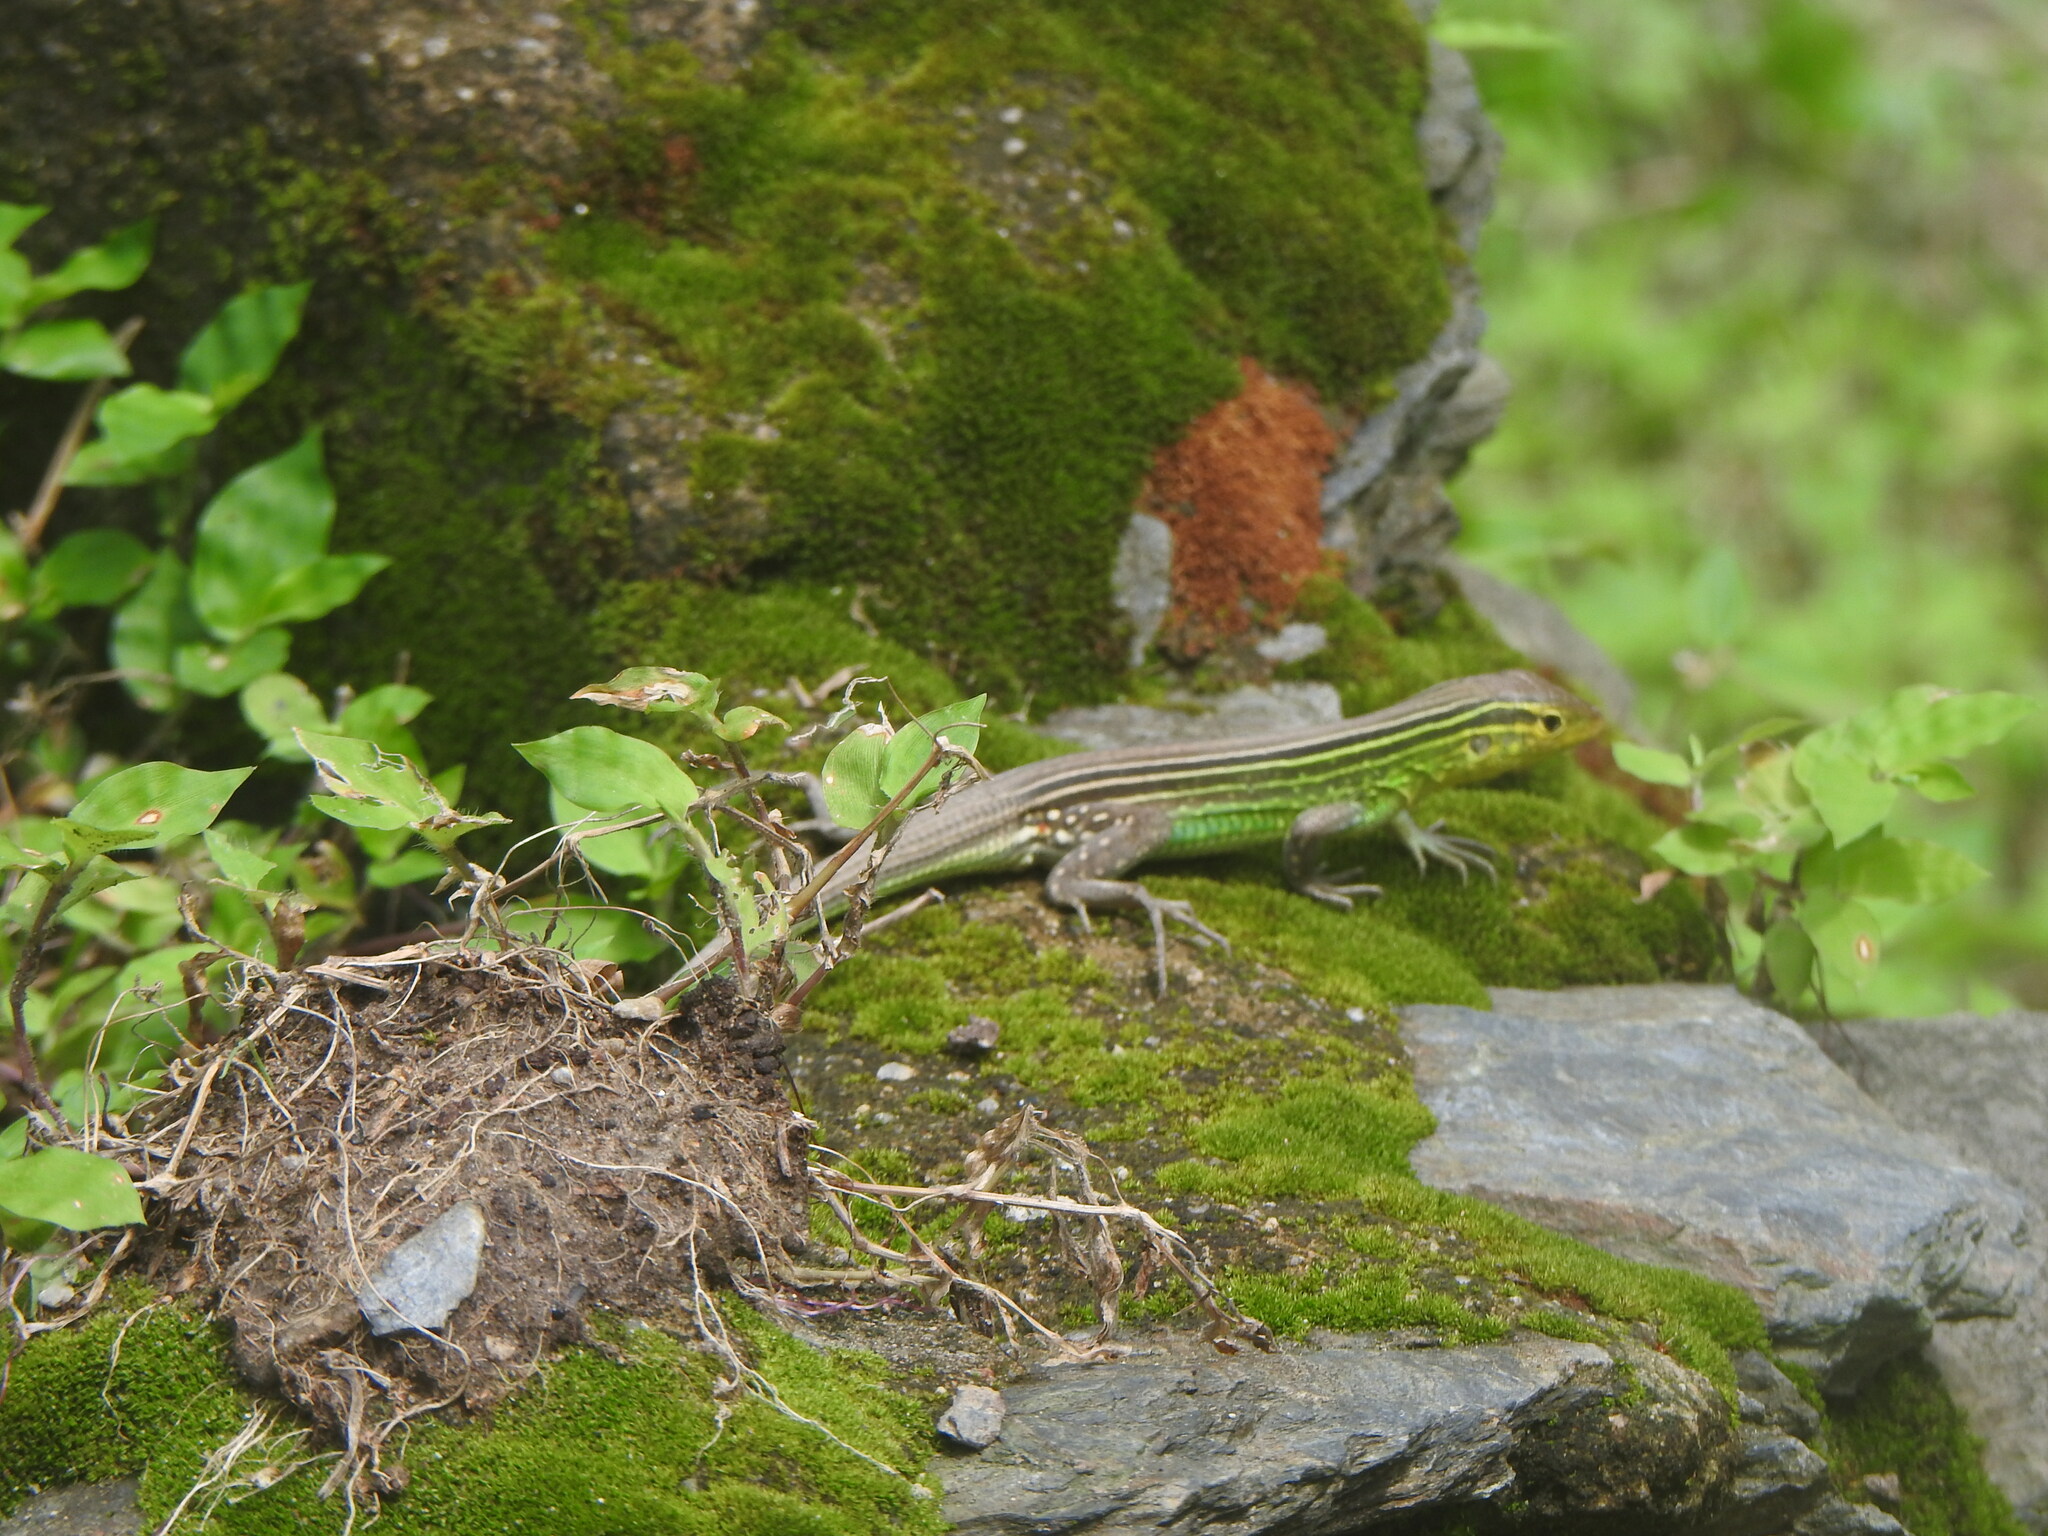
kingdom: Animalia
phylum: Chordata
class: Squamata
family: Teiidae
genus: Cnemidophorus
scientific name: Cnemidophorus gaigei
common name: Gaige’s rainbow lizard
